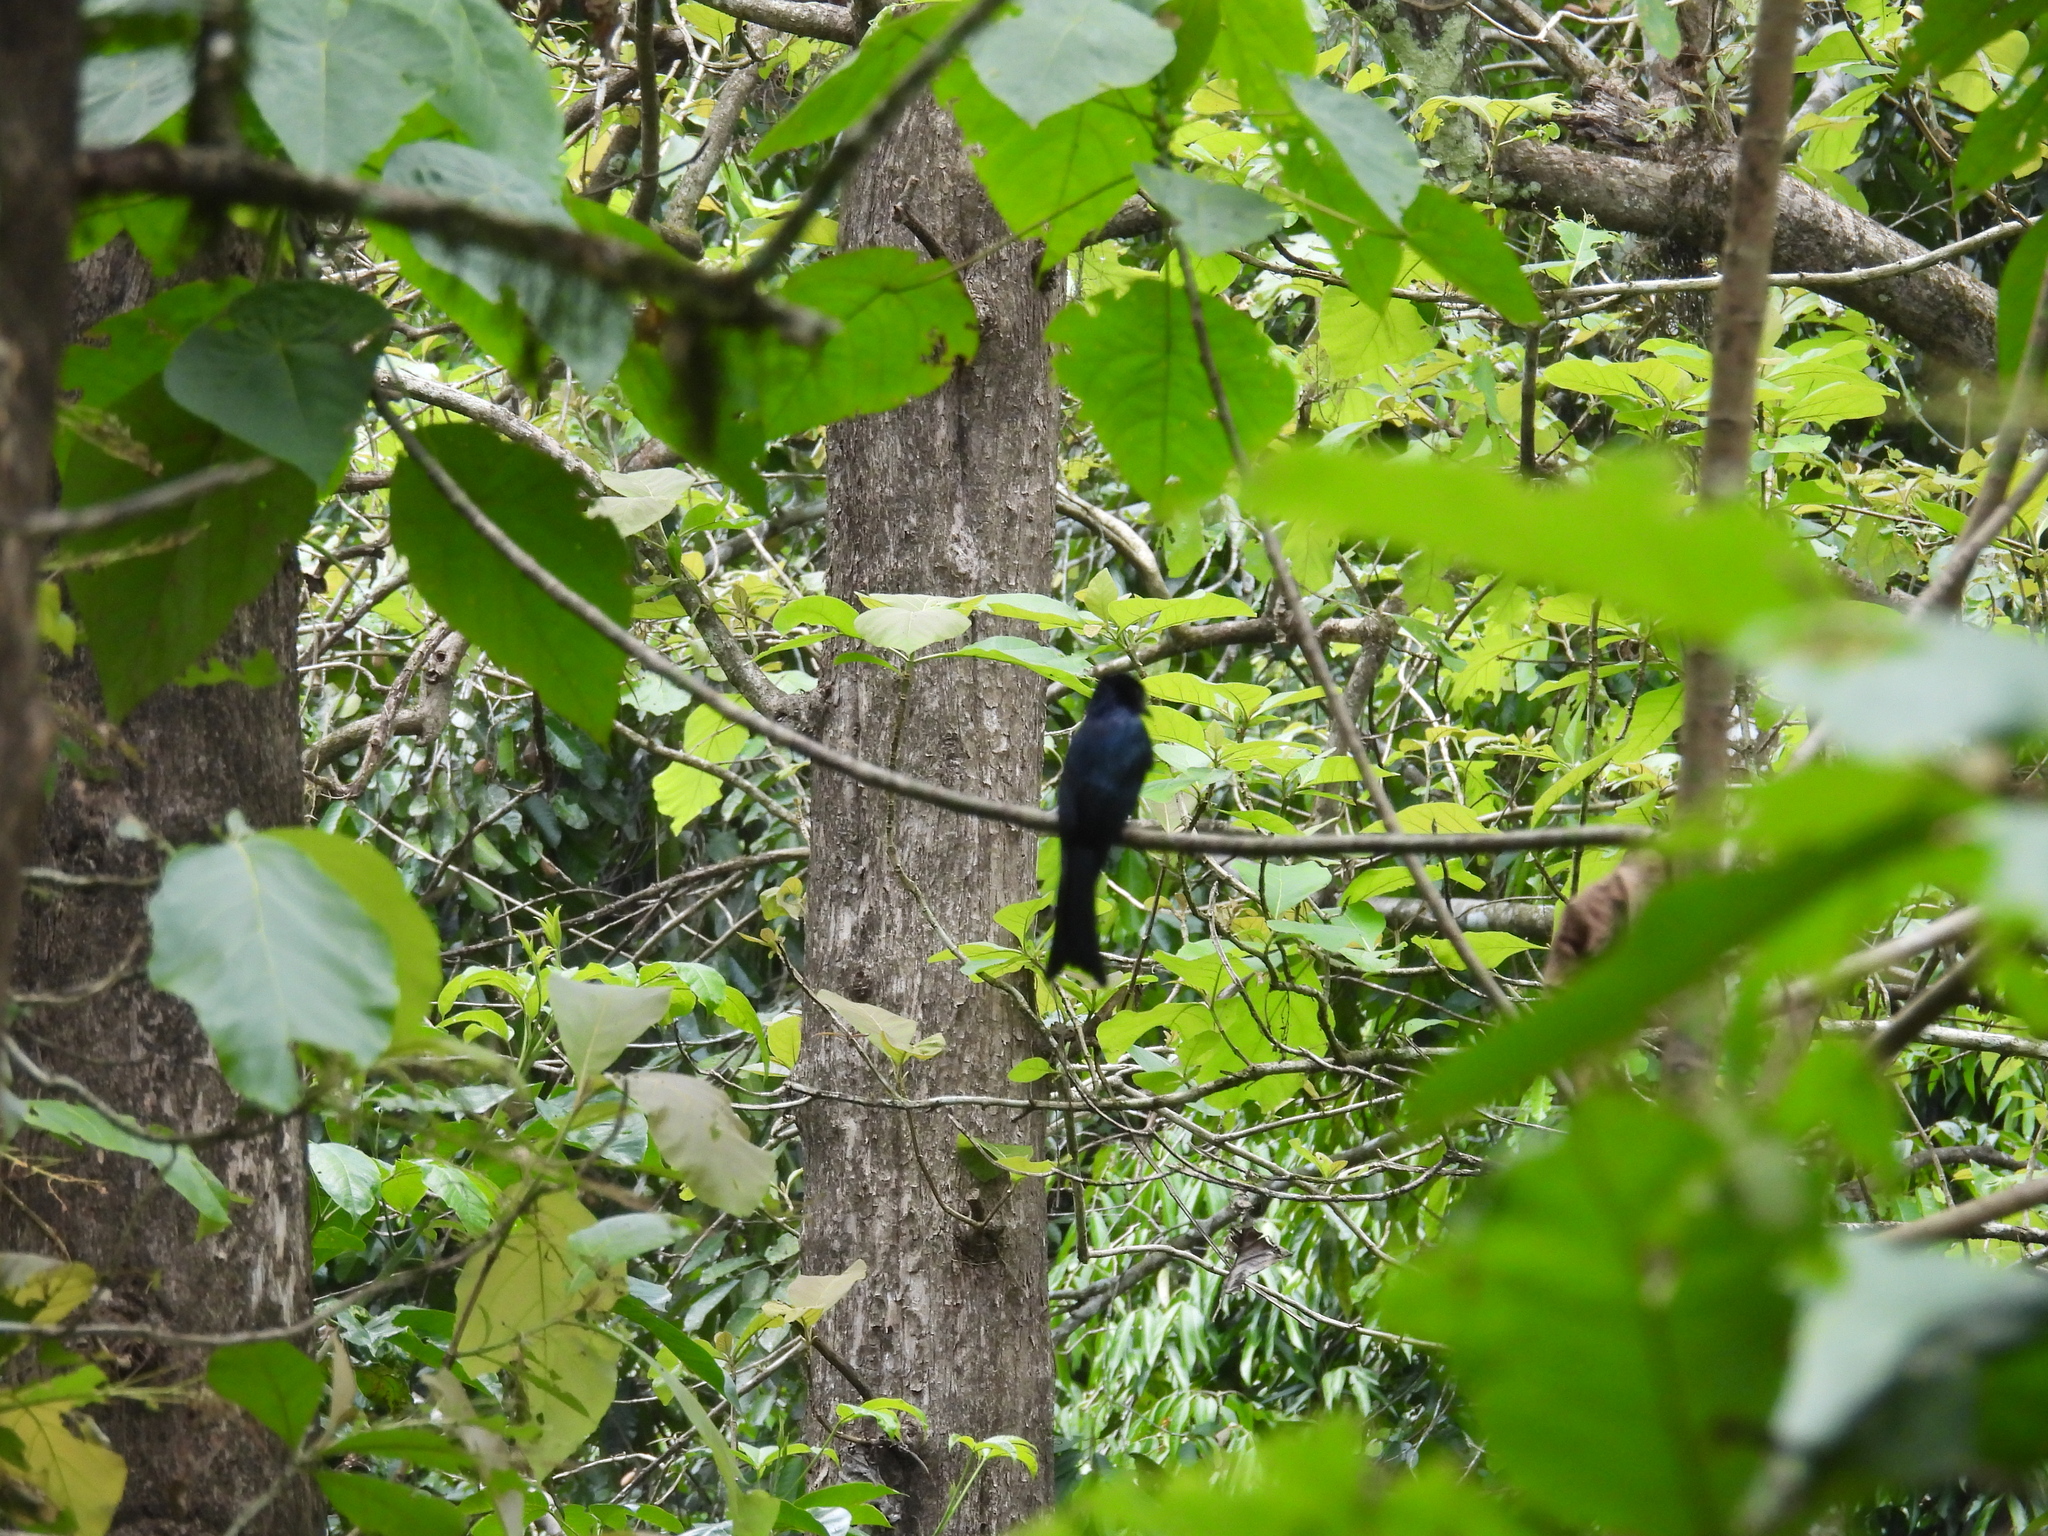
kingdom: Animalia
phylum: Chordata
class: Aves
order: Passeriformes
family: Dicruridae
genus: Dicrurus
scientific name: Dicrurus paradiseus
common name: Greater racket-tailed drongo
